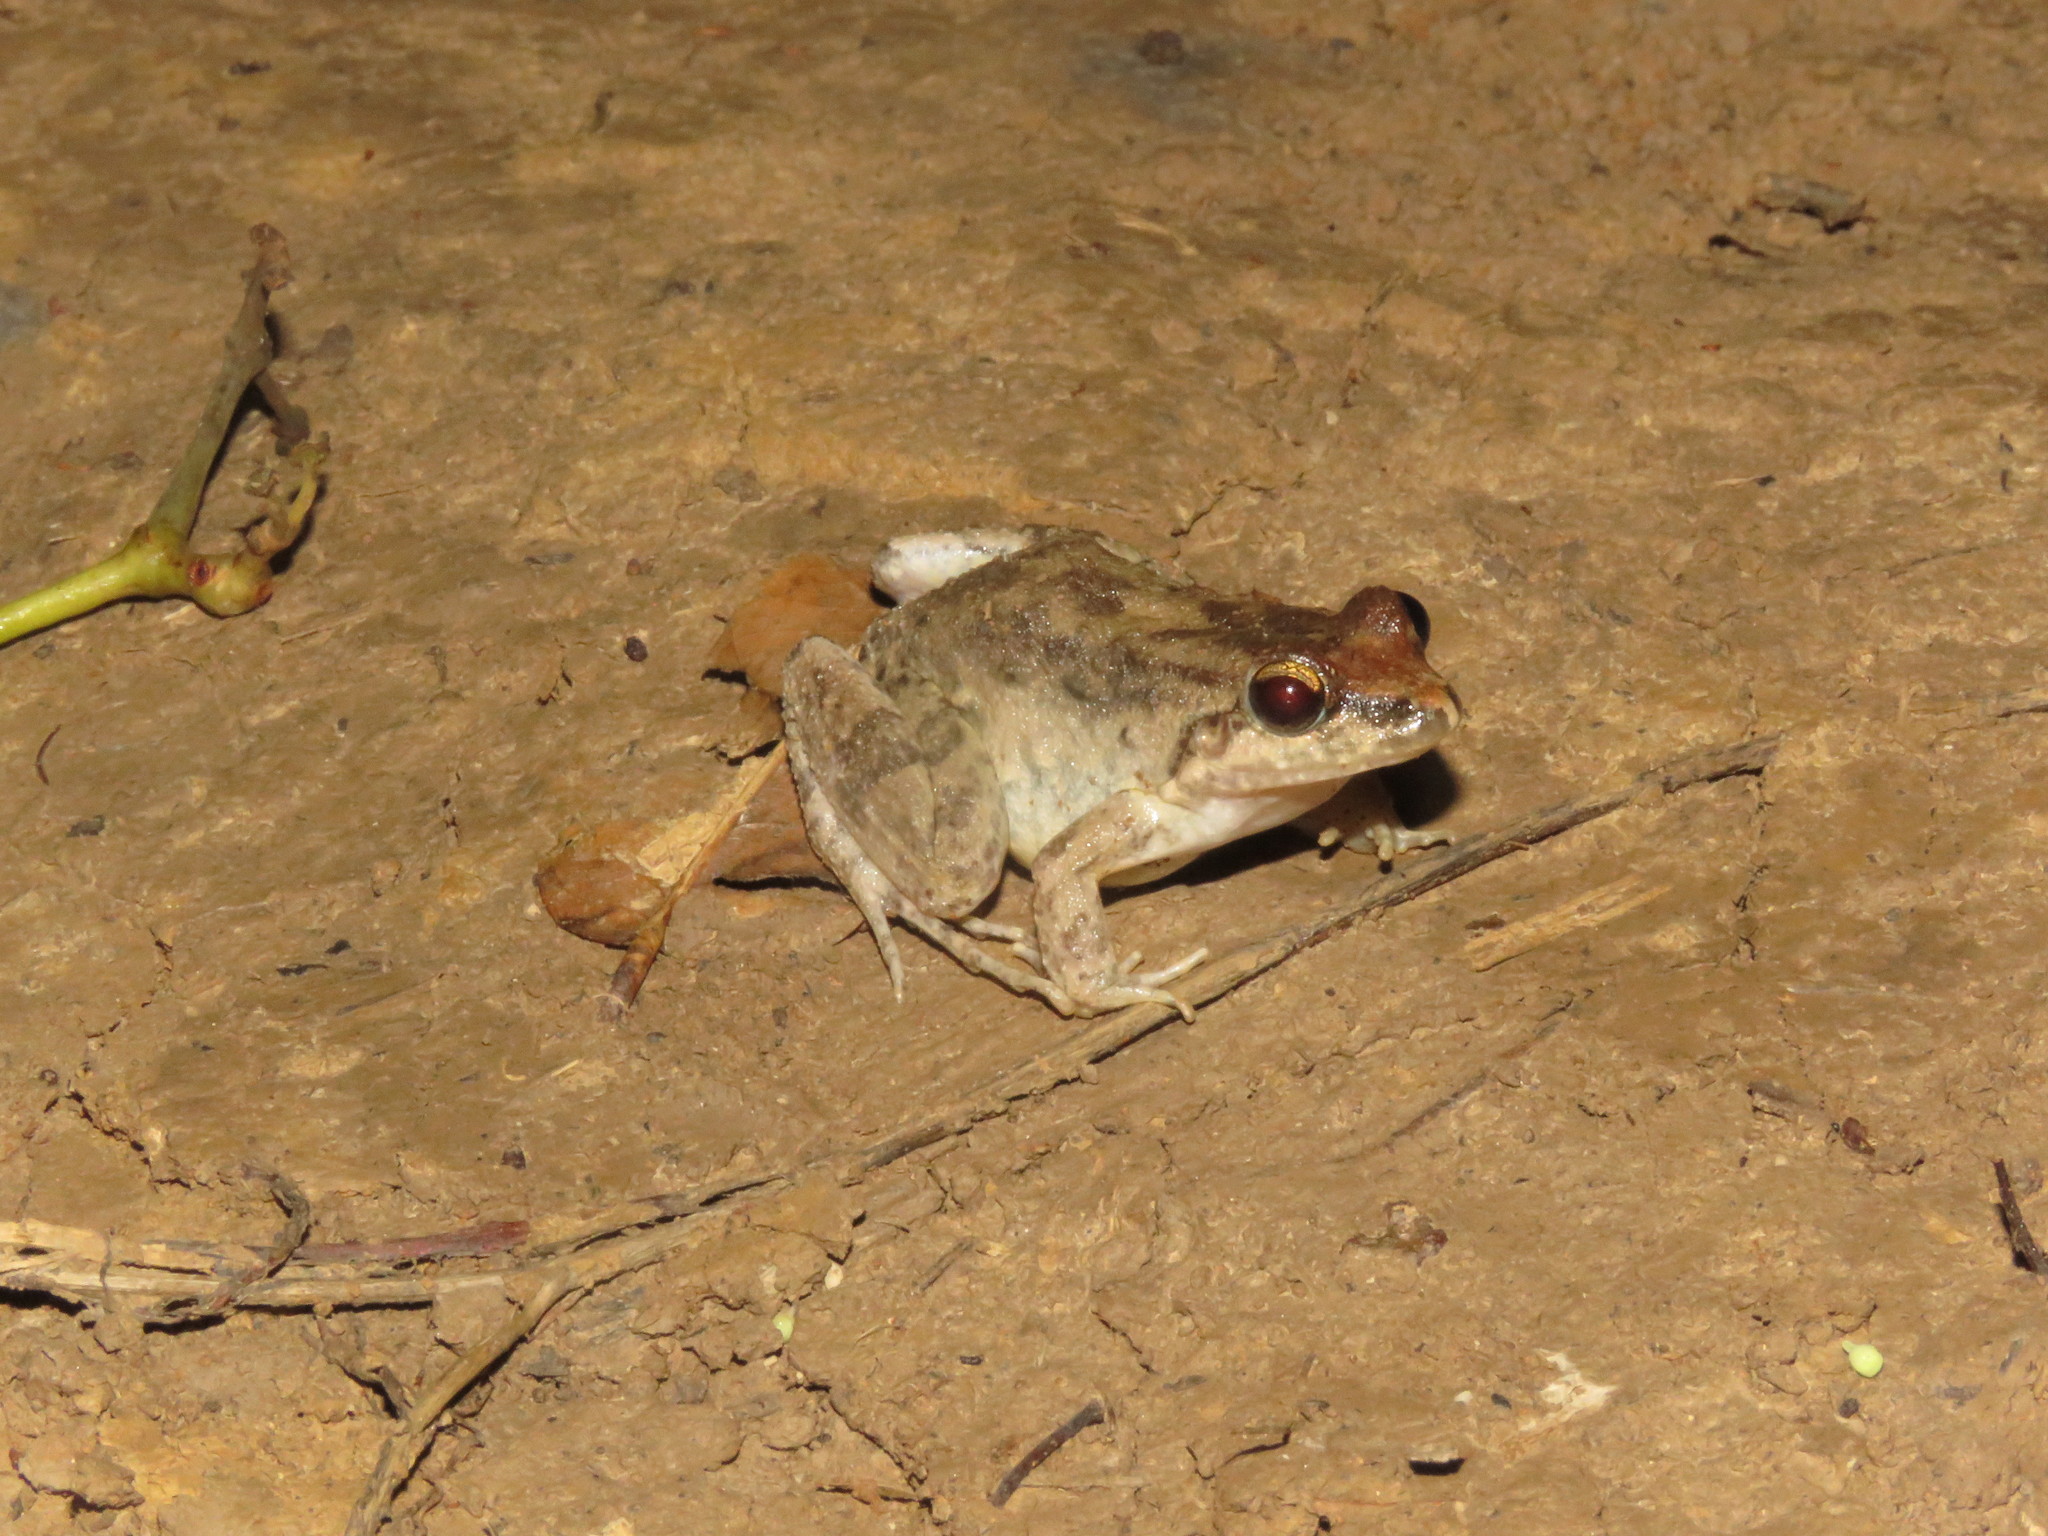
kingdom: Animalia
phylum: Chordata
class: Amphibia
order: Anura
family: Leptodactylidae
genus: Leptodactylus
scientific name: Leptodactylus petersii
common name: Peters' thin-toed frog
